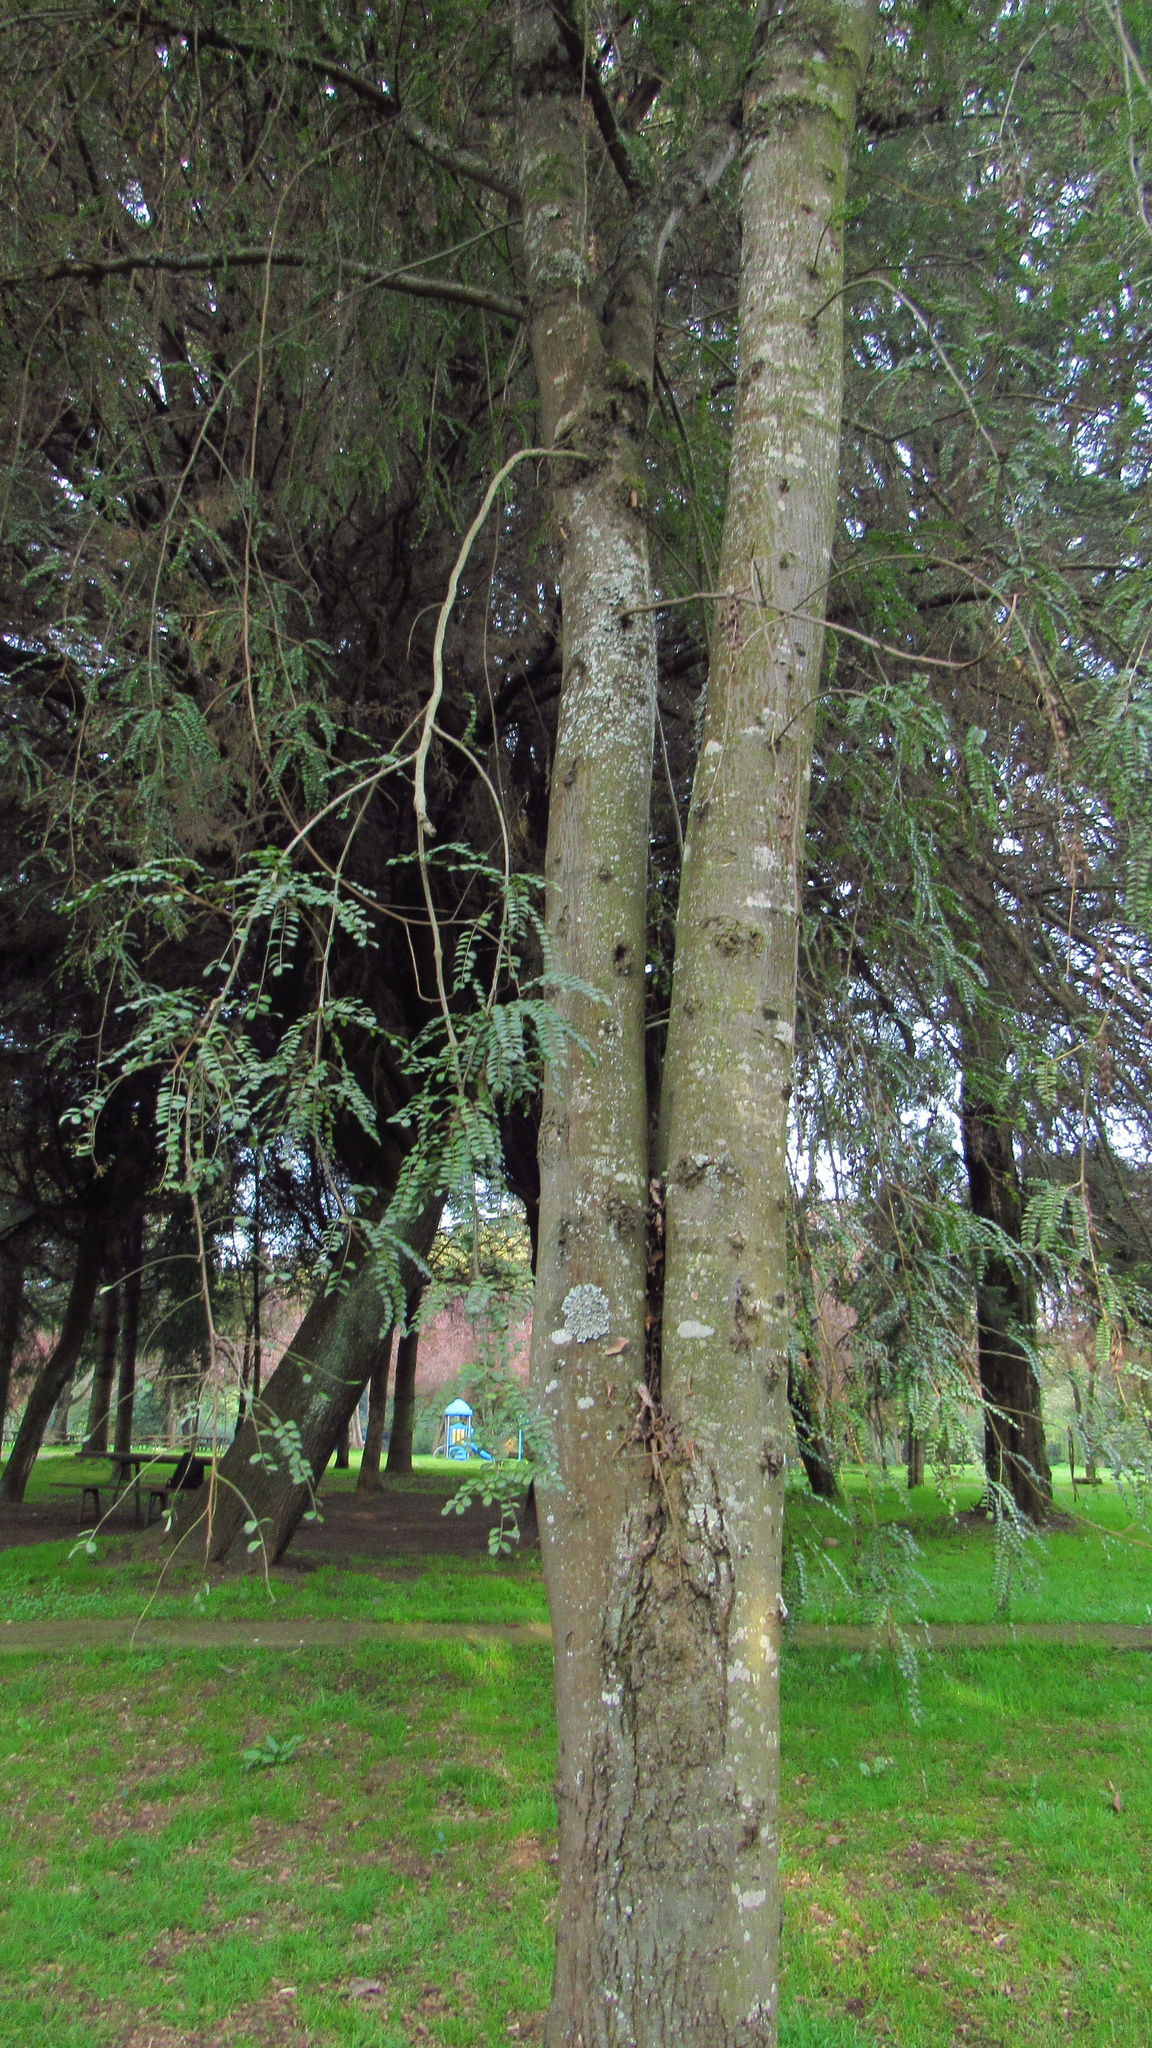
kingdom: Plantae
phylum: Tracheophyta
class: Magnoliopsida
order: Fabales
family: Fabaceae
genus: Sophora
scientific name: Sophora cassioides
